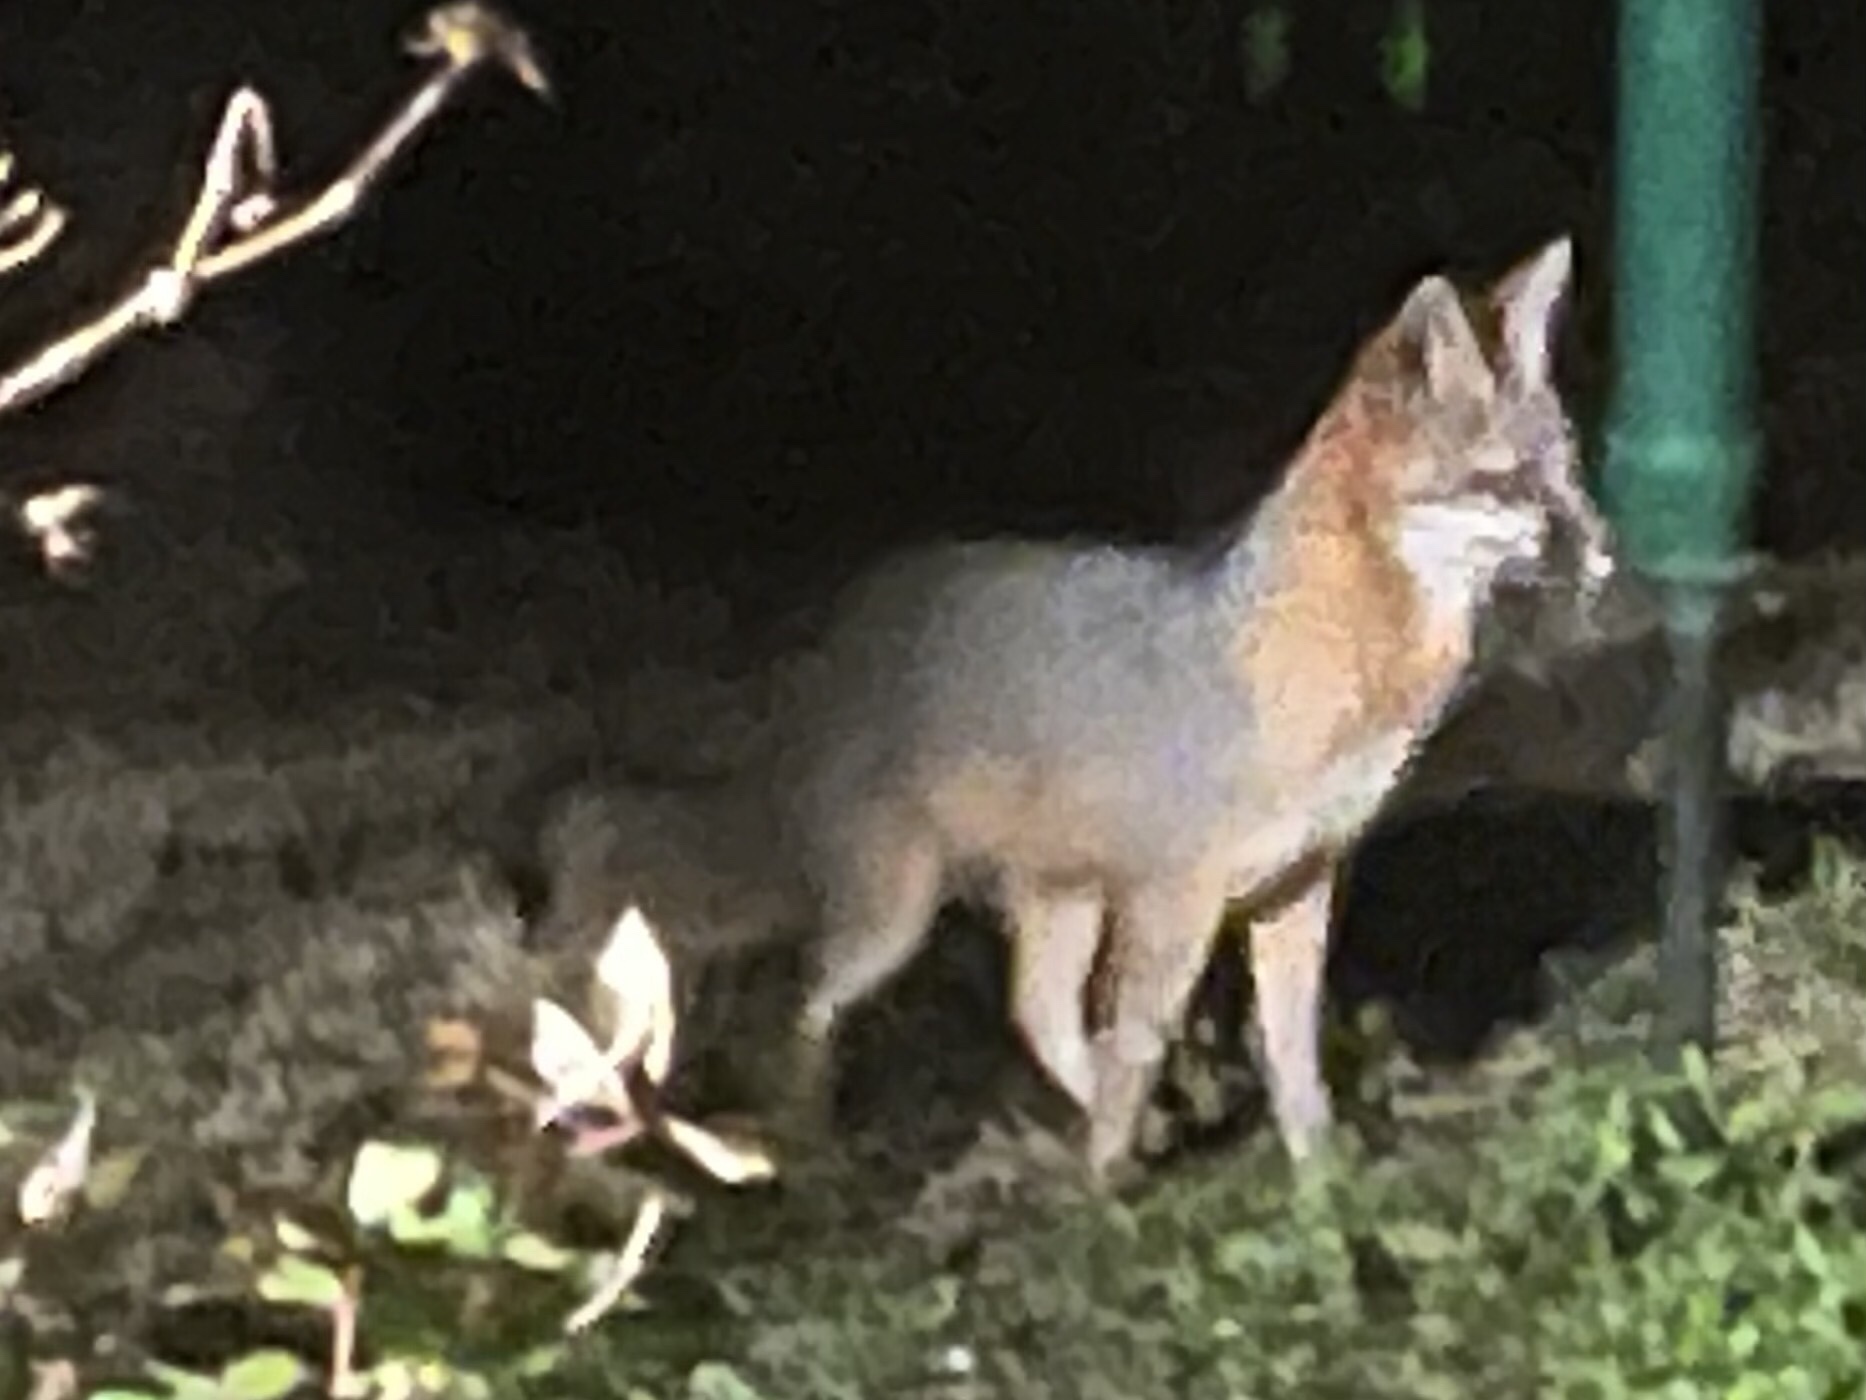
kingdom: Animalia
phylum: Chordata
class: Mammalia
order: Carnivora
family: Canidae
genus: Urocyon
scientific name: Urocyon cinereoargenteus
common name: Gray fox
